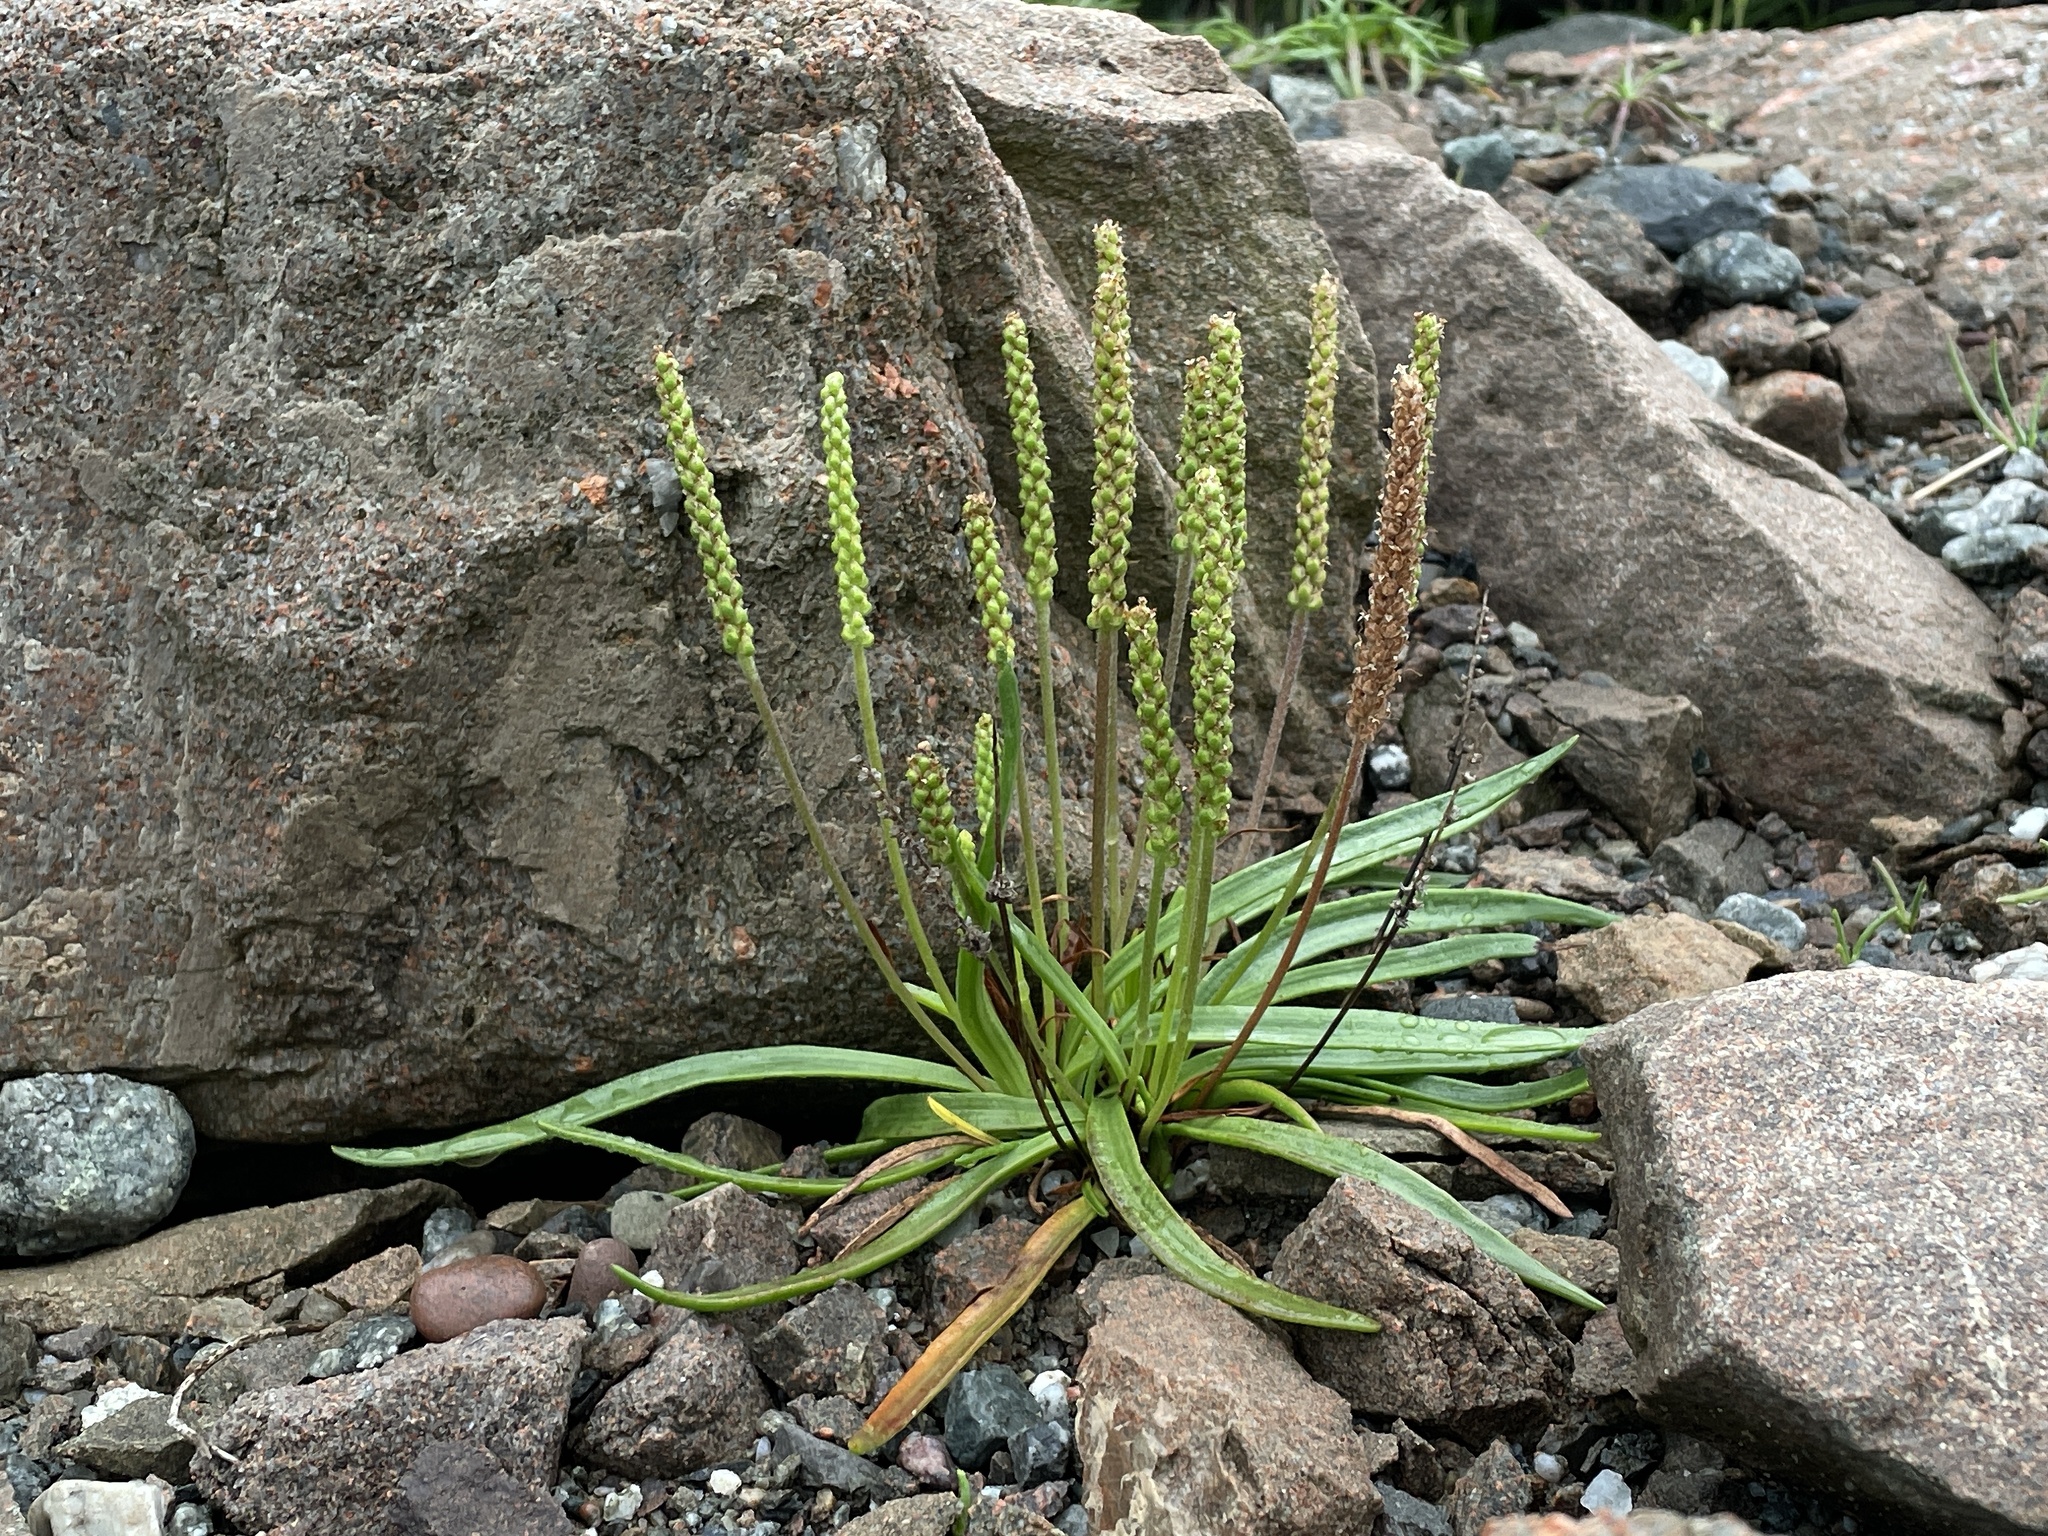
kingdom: Plantae
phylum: Tracheophyta
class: Magnoliopsida
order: Lamiales
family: Plantaginaceae
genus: Plantago
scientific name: Plantago maritima
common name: Sea plantain
